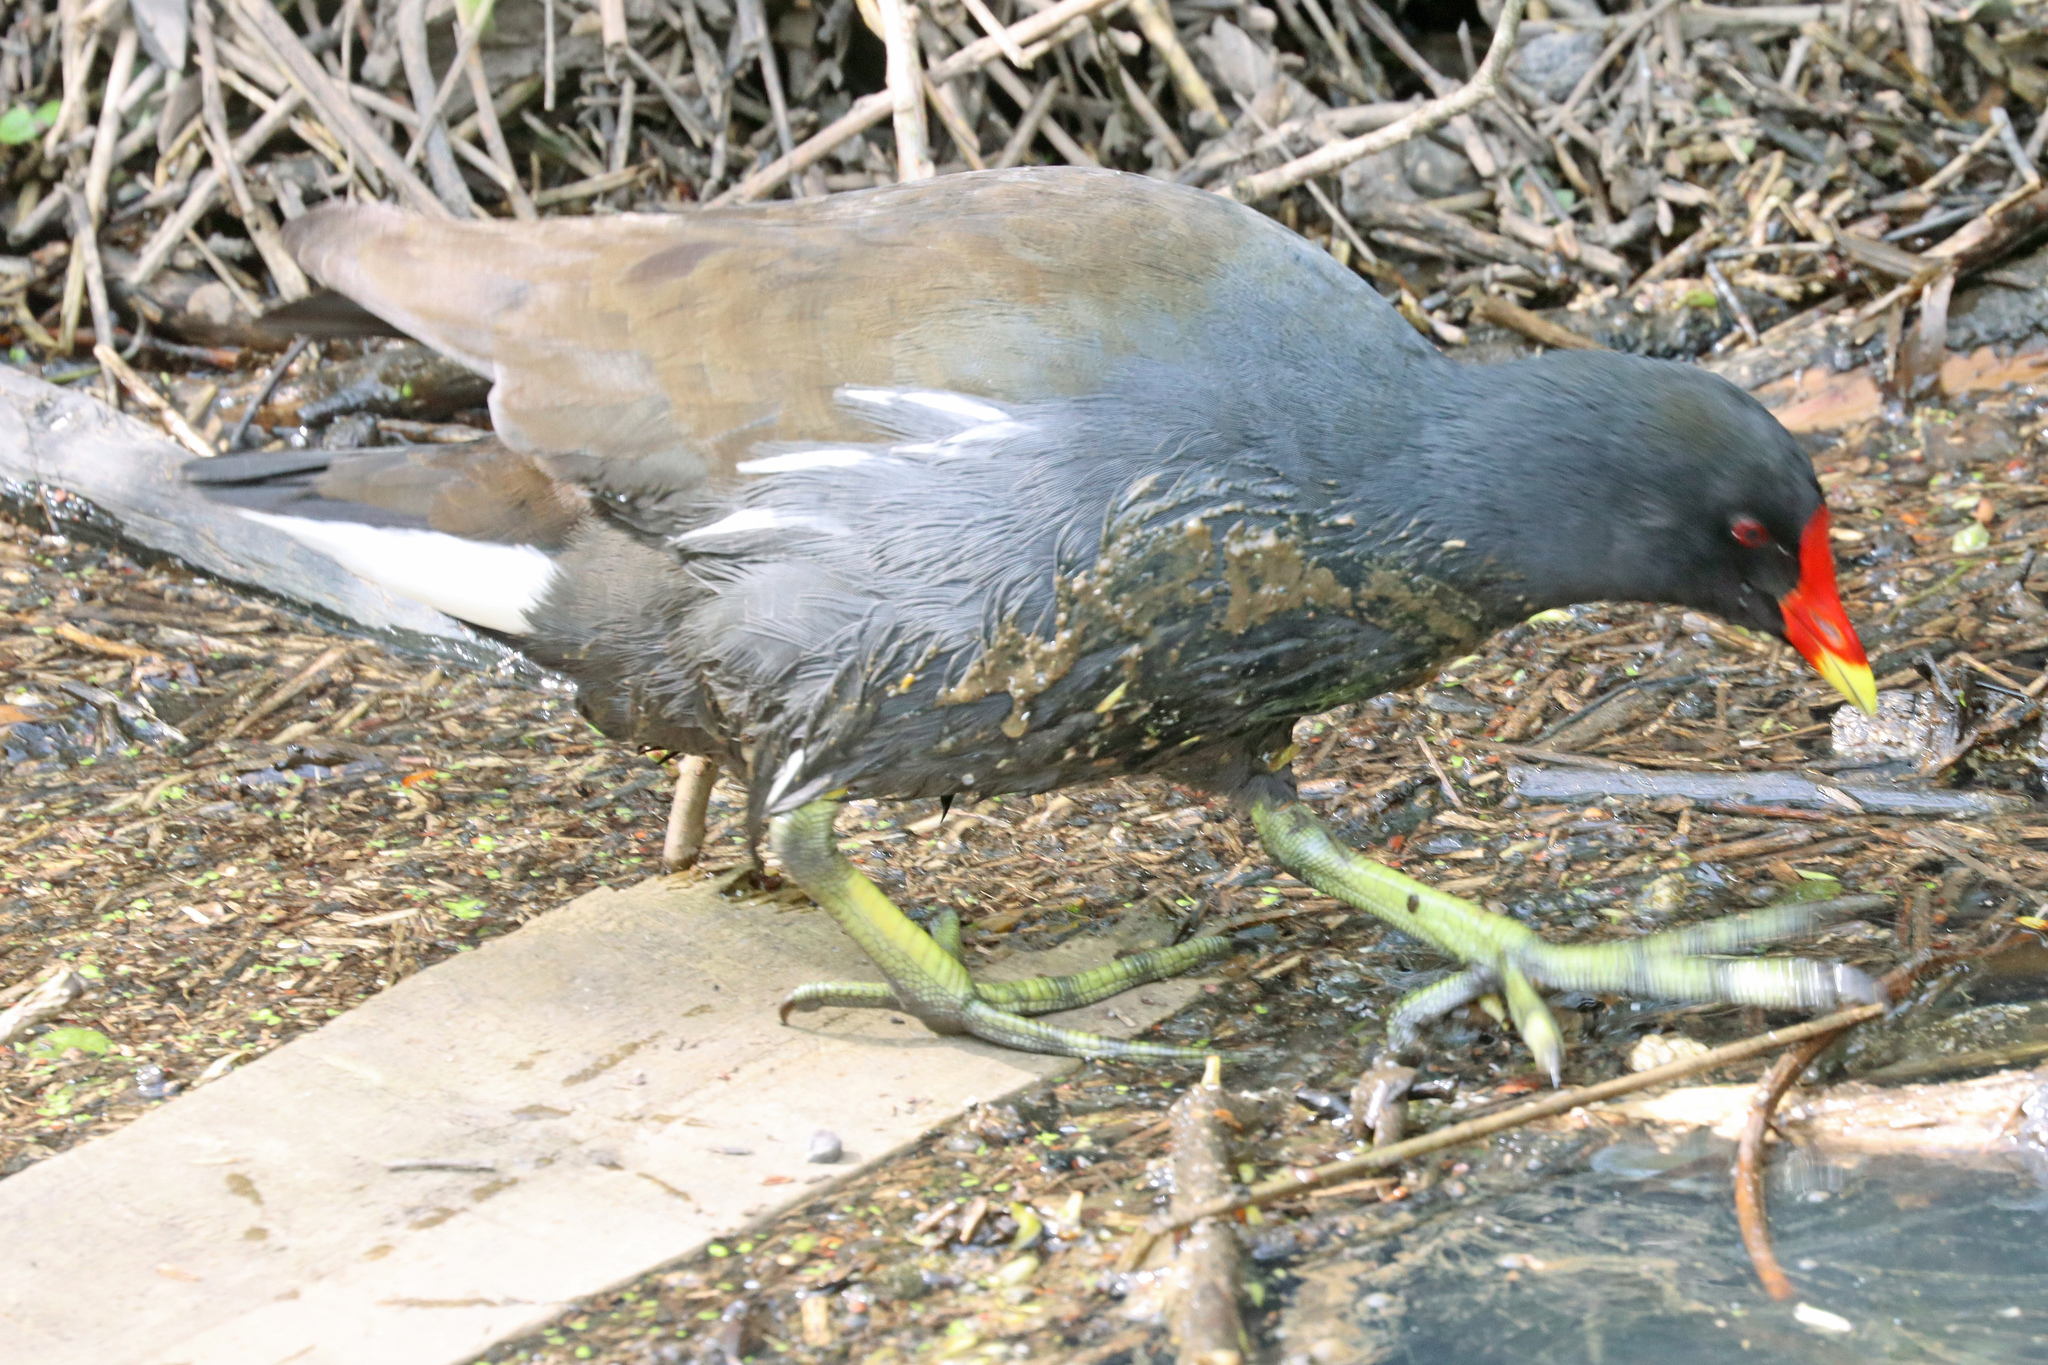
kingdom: Animalia
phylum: Chordata
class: Aves
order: Gruiformes
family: Rallidae
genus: Gallinula
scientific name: Gallinula chloropus
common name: Common moorhen
